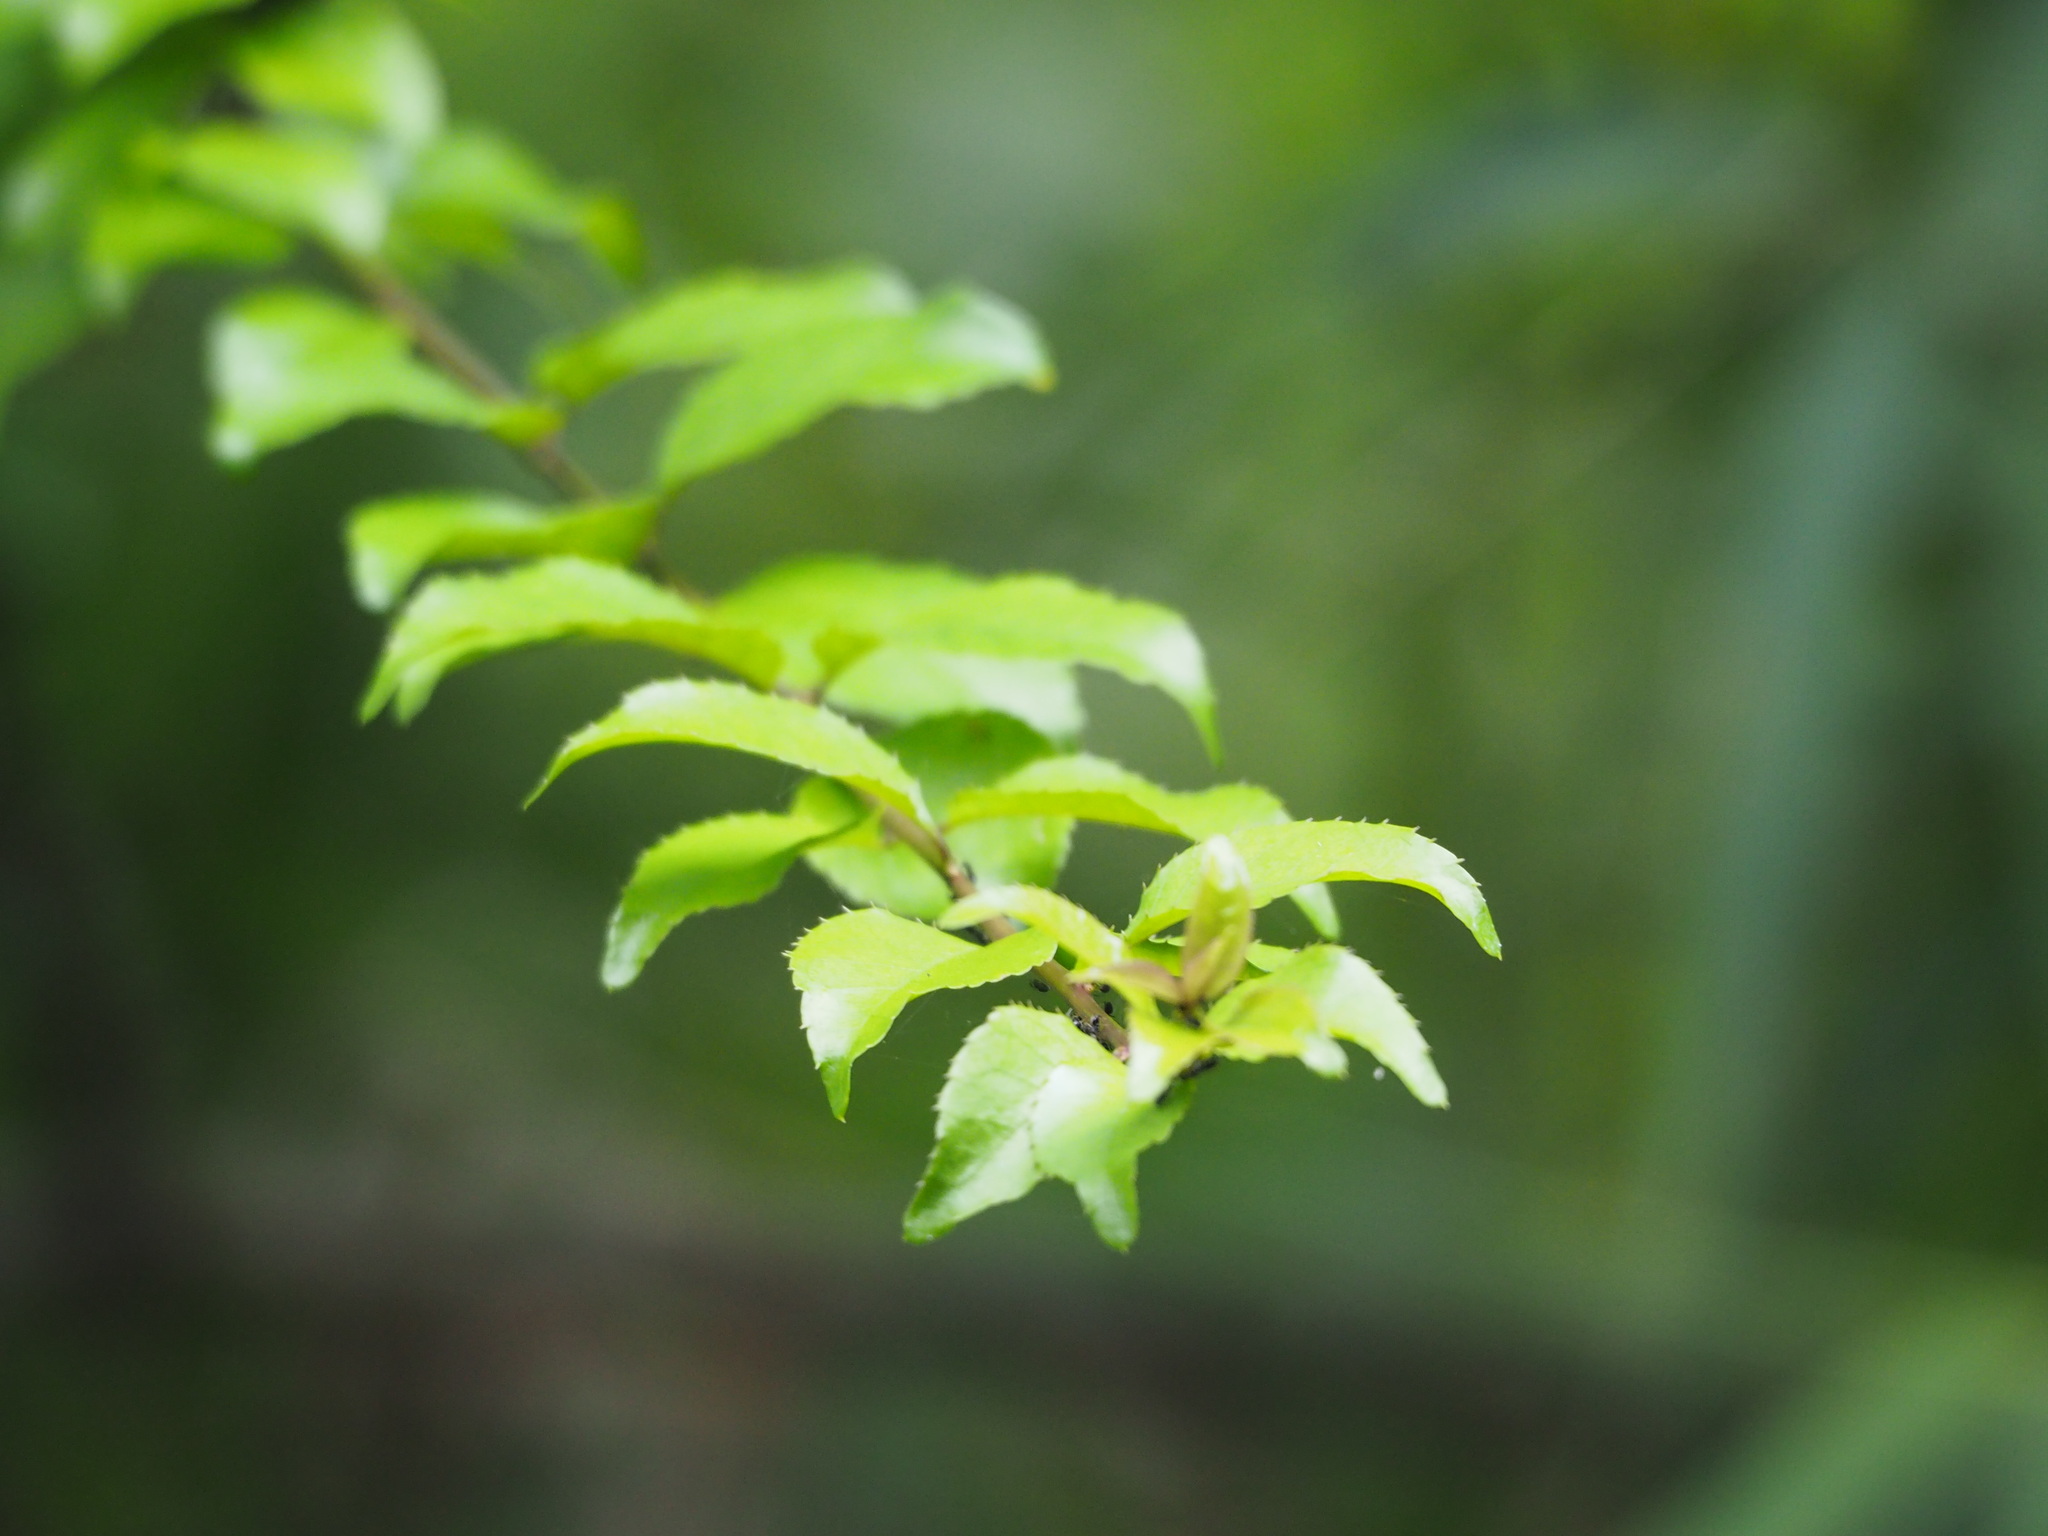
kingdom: Plantae
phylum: Tracheophyta
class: Magnoliopsida
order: Aquifoliales
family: Aquifoliaceae
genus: Ilex
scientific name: Ilex asprella
